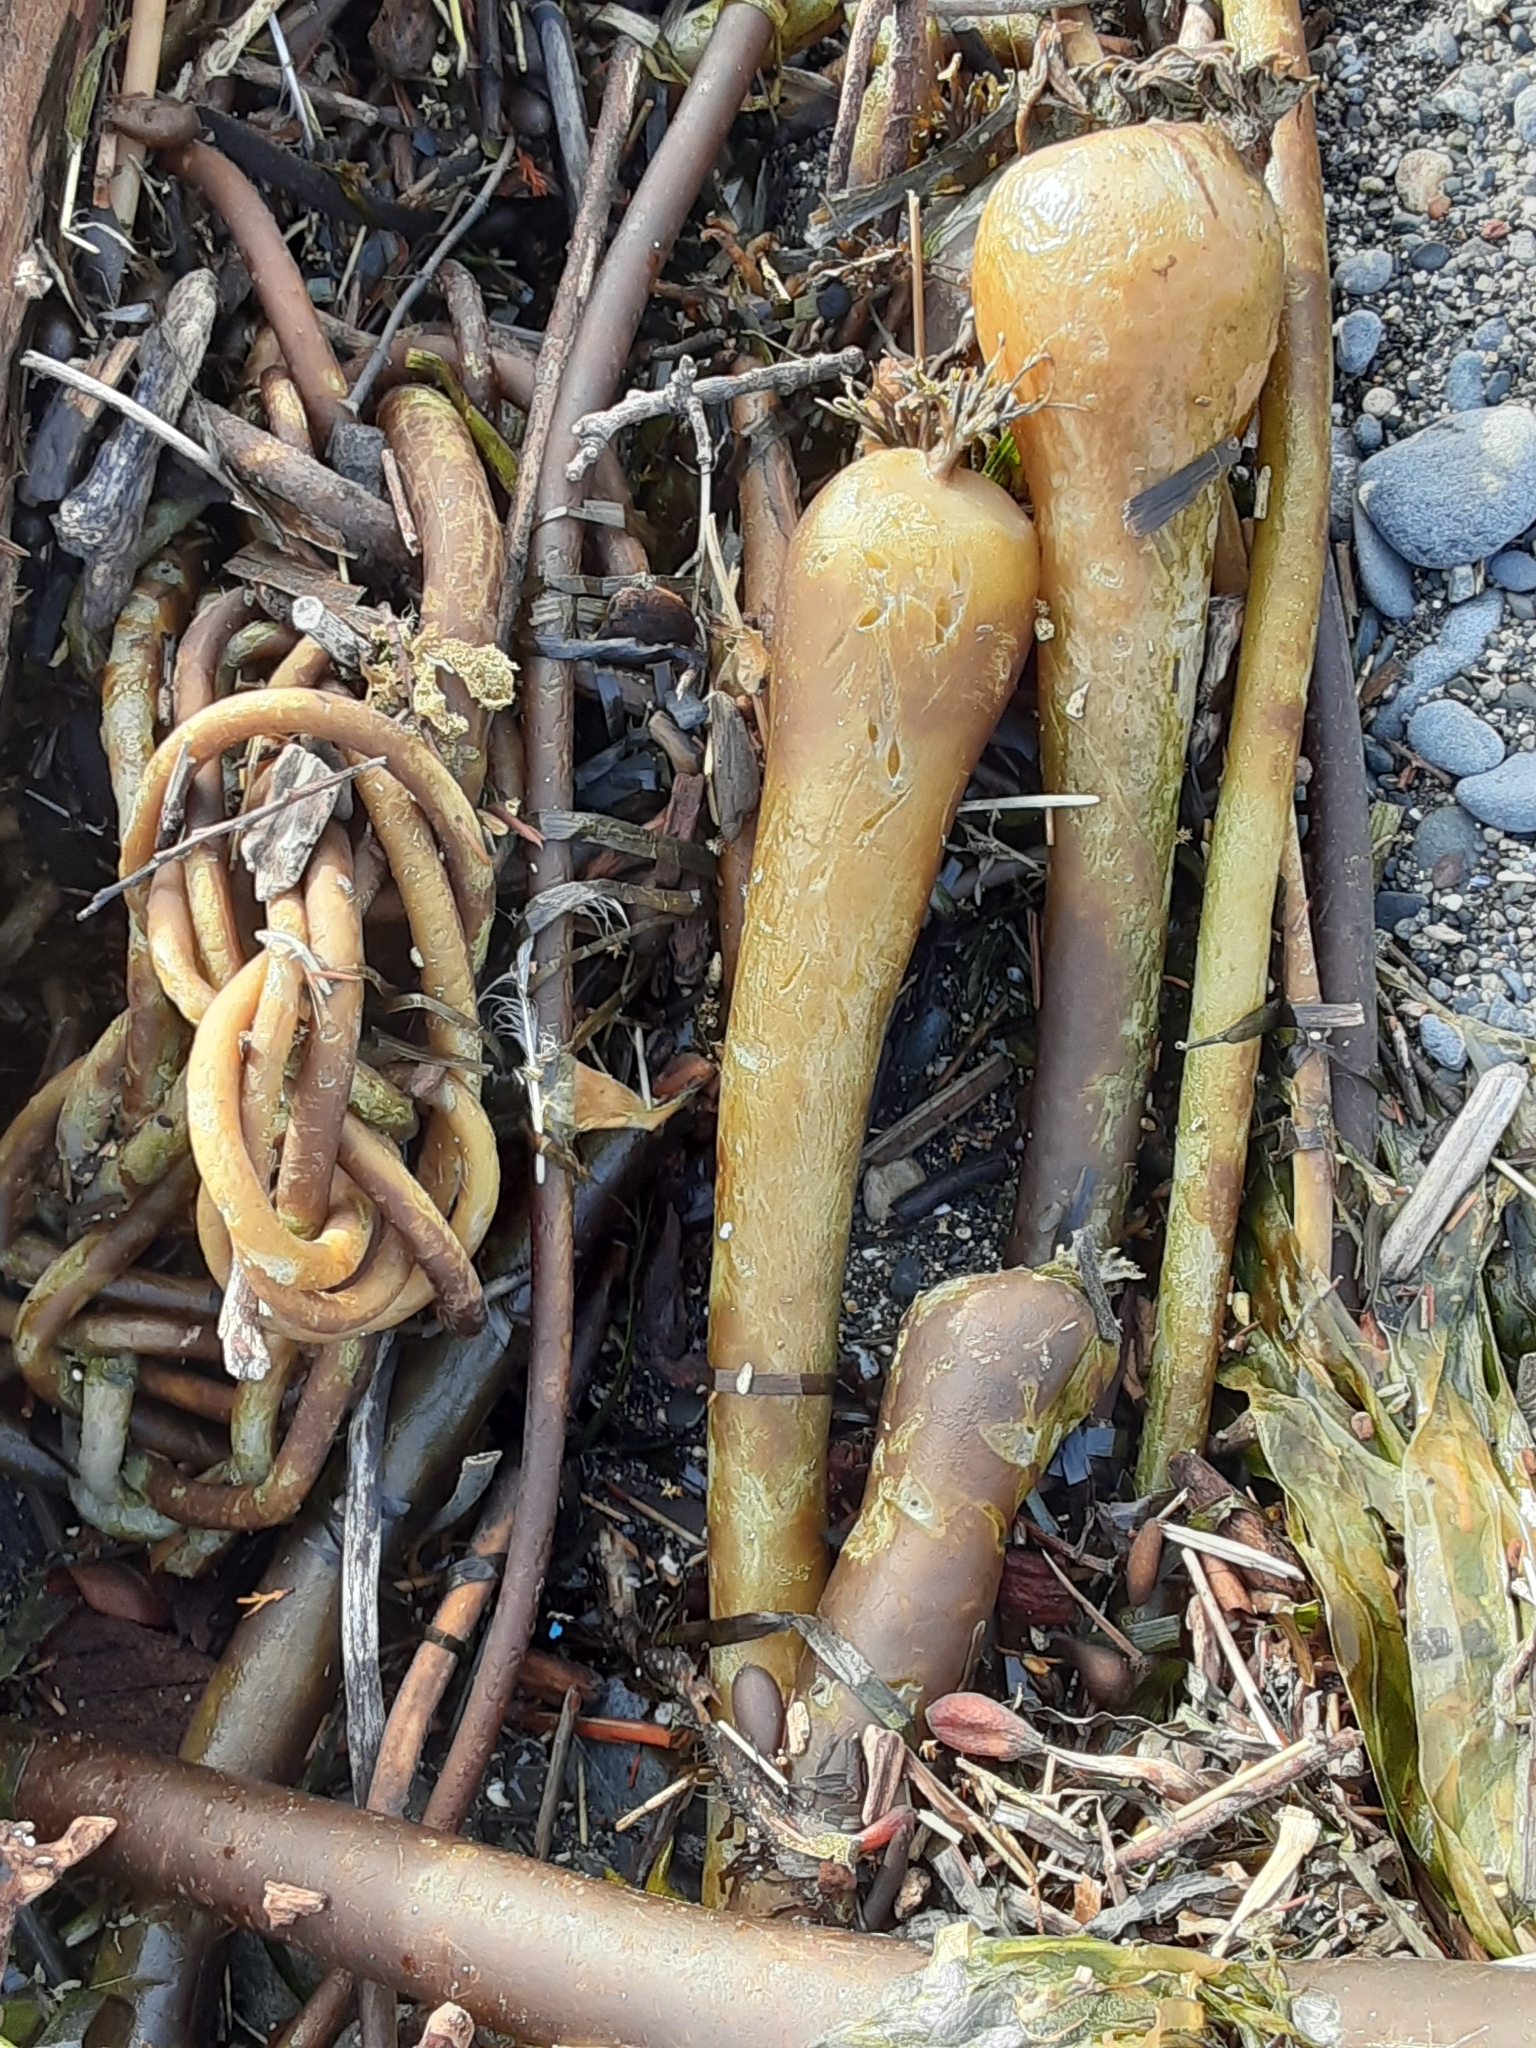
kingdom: Chromista
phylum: Ochrophyta
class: Phaeophyceae
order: Laminariales
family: Laminariaceae
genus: Nereocystis
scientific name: Nereocystis luetkeana
